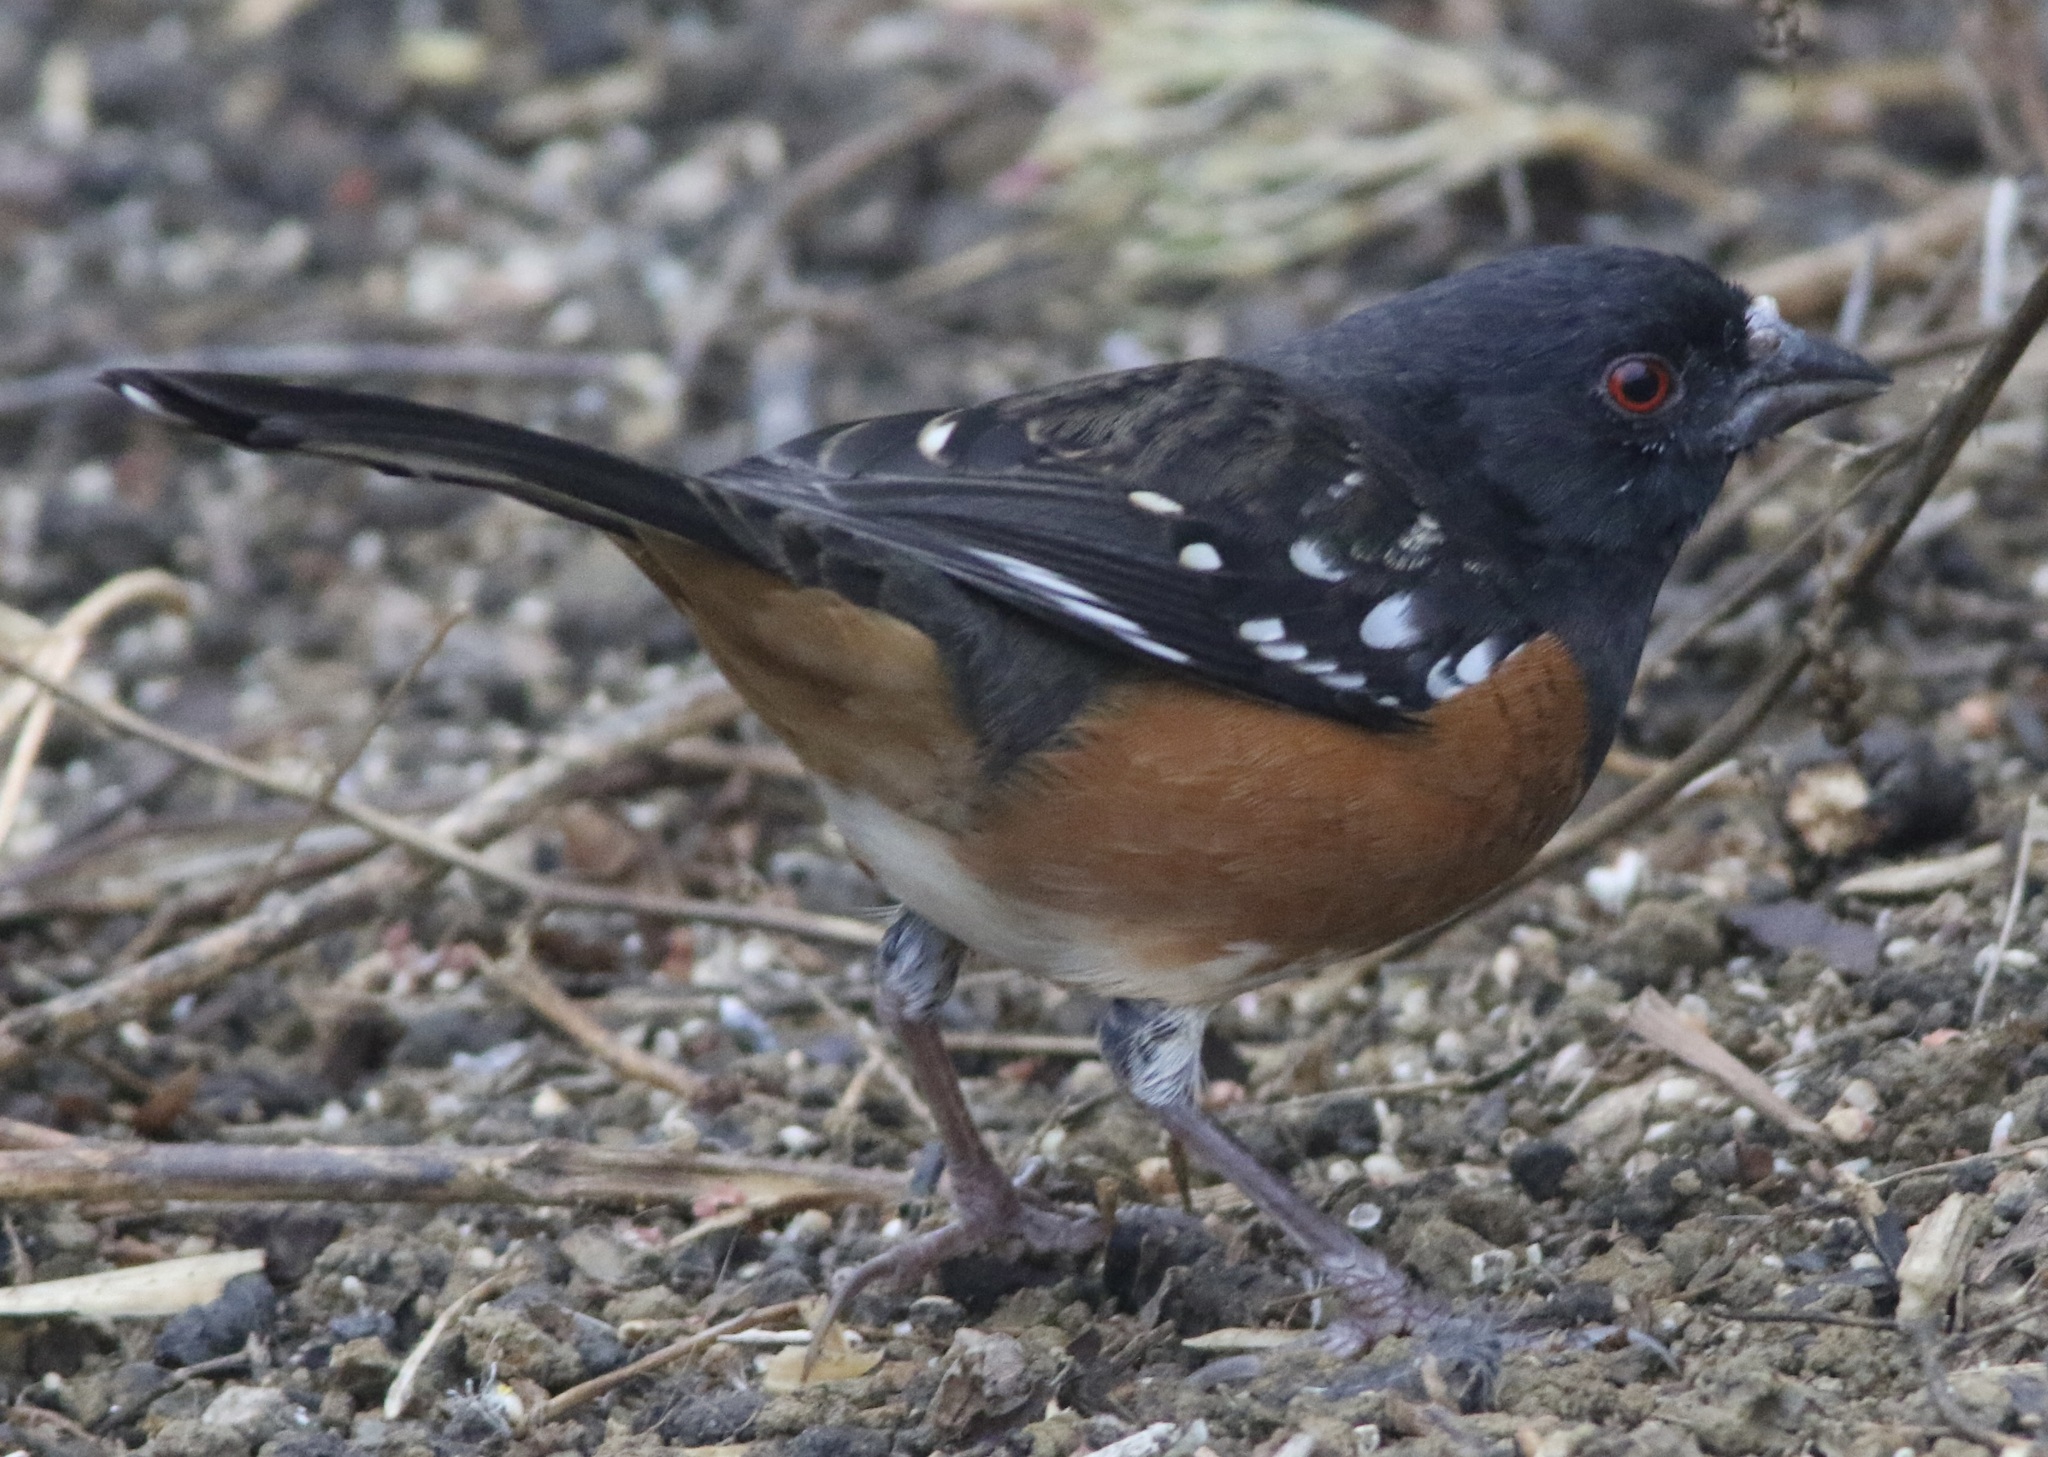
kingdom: Animalia
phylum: Chordata
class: Aves
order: Passeriformes
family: Passerellidae
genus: Pipilo
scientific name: Pipilo maculatus
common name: Spotted towhee
